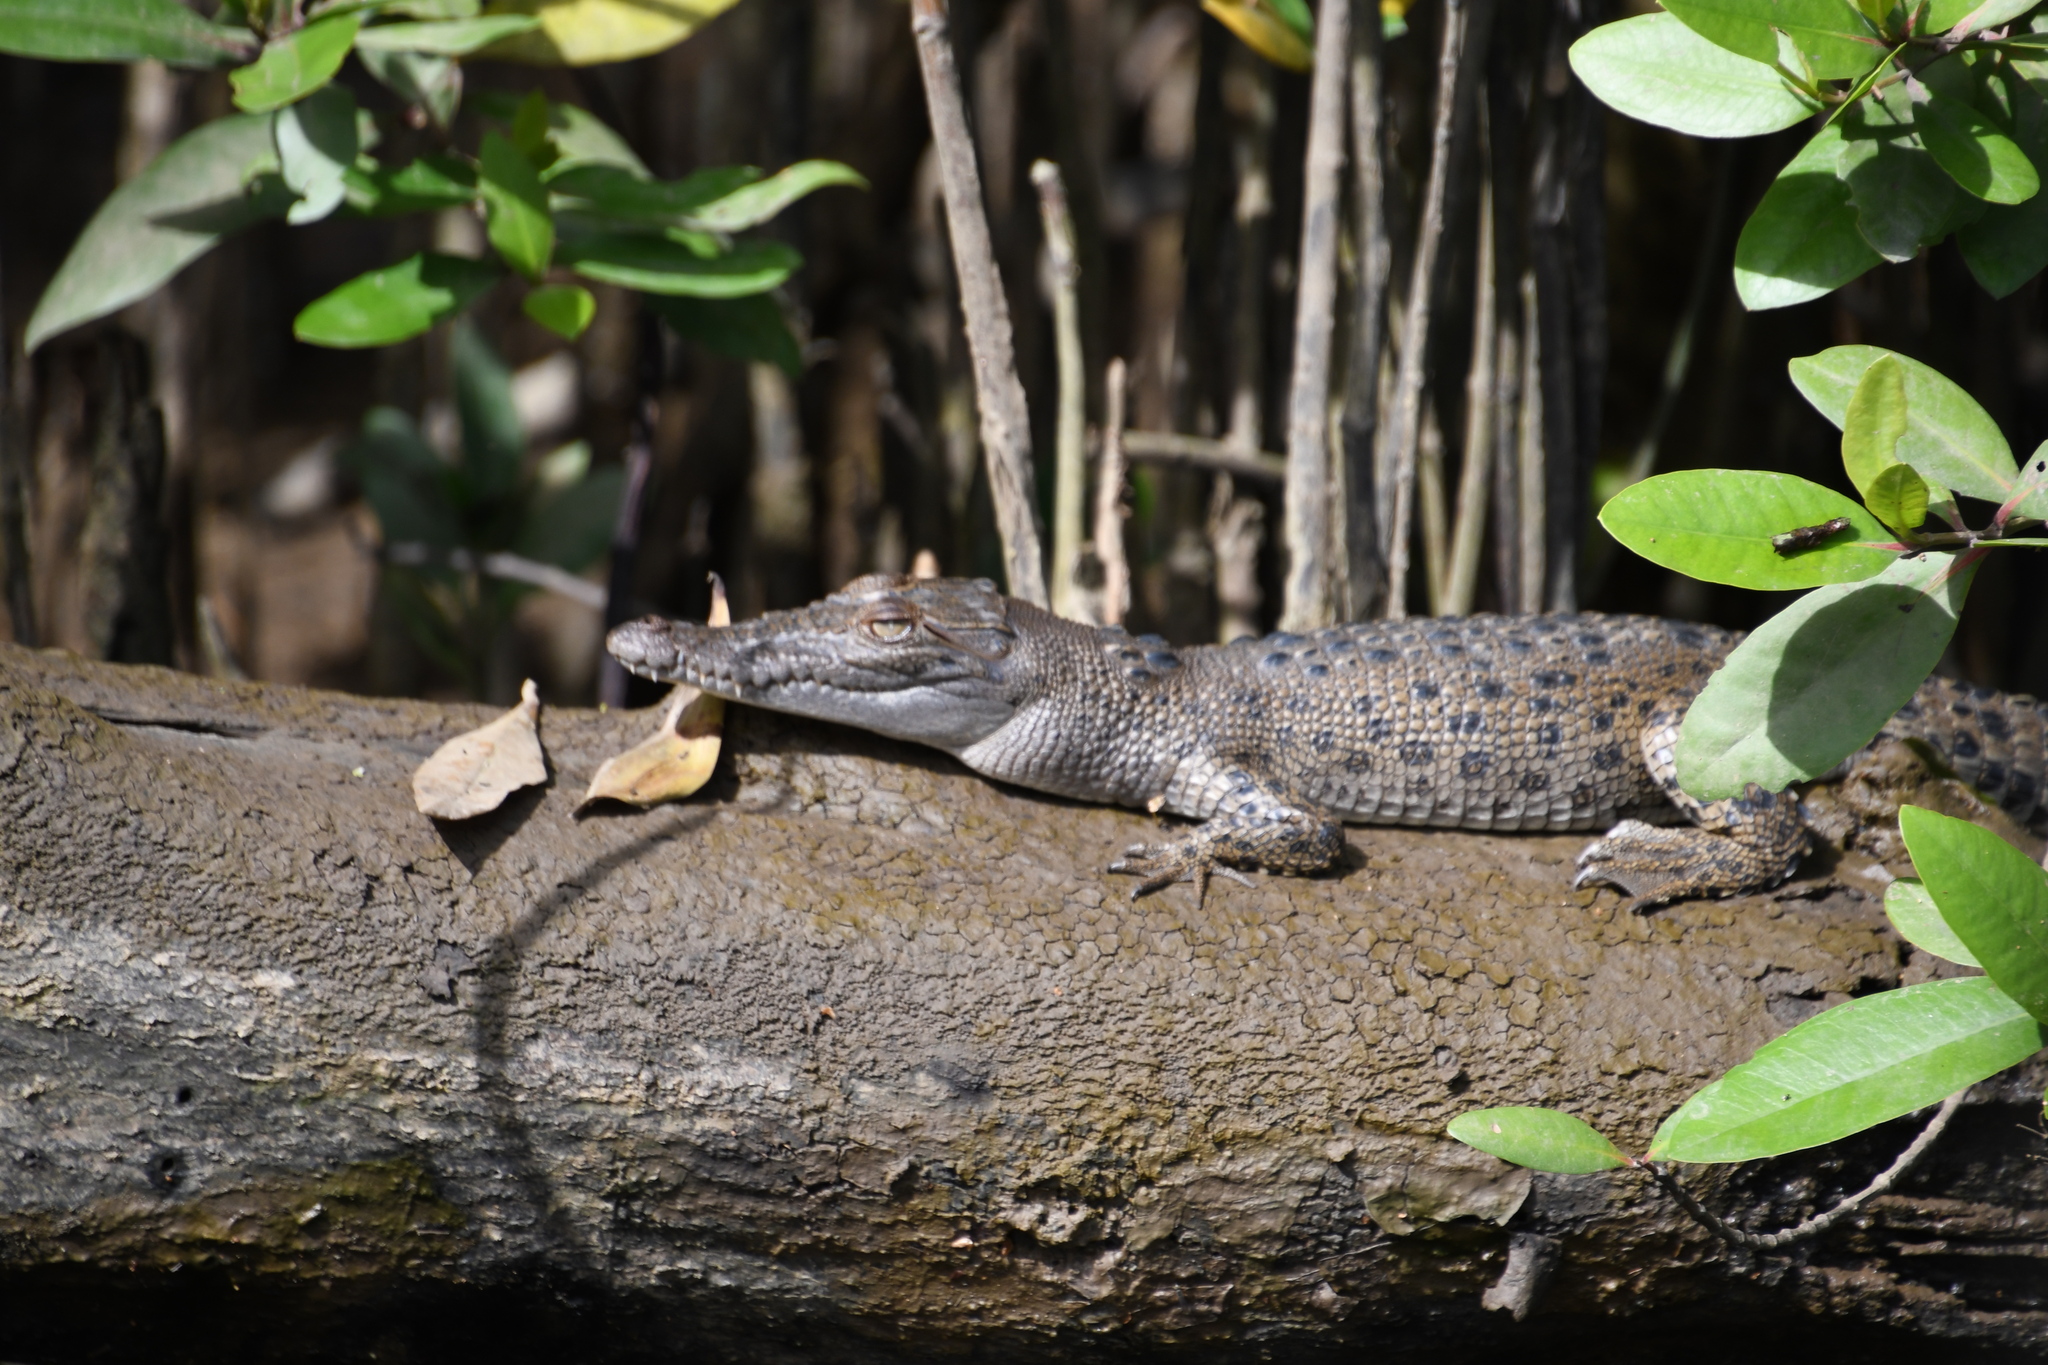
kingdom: Animalia
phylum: Chordata
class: Crocodylia
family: Crocodylidae
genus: Crocodylus
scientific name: Crocodylus porosus
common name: Saltwater crocodile
